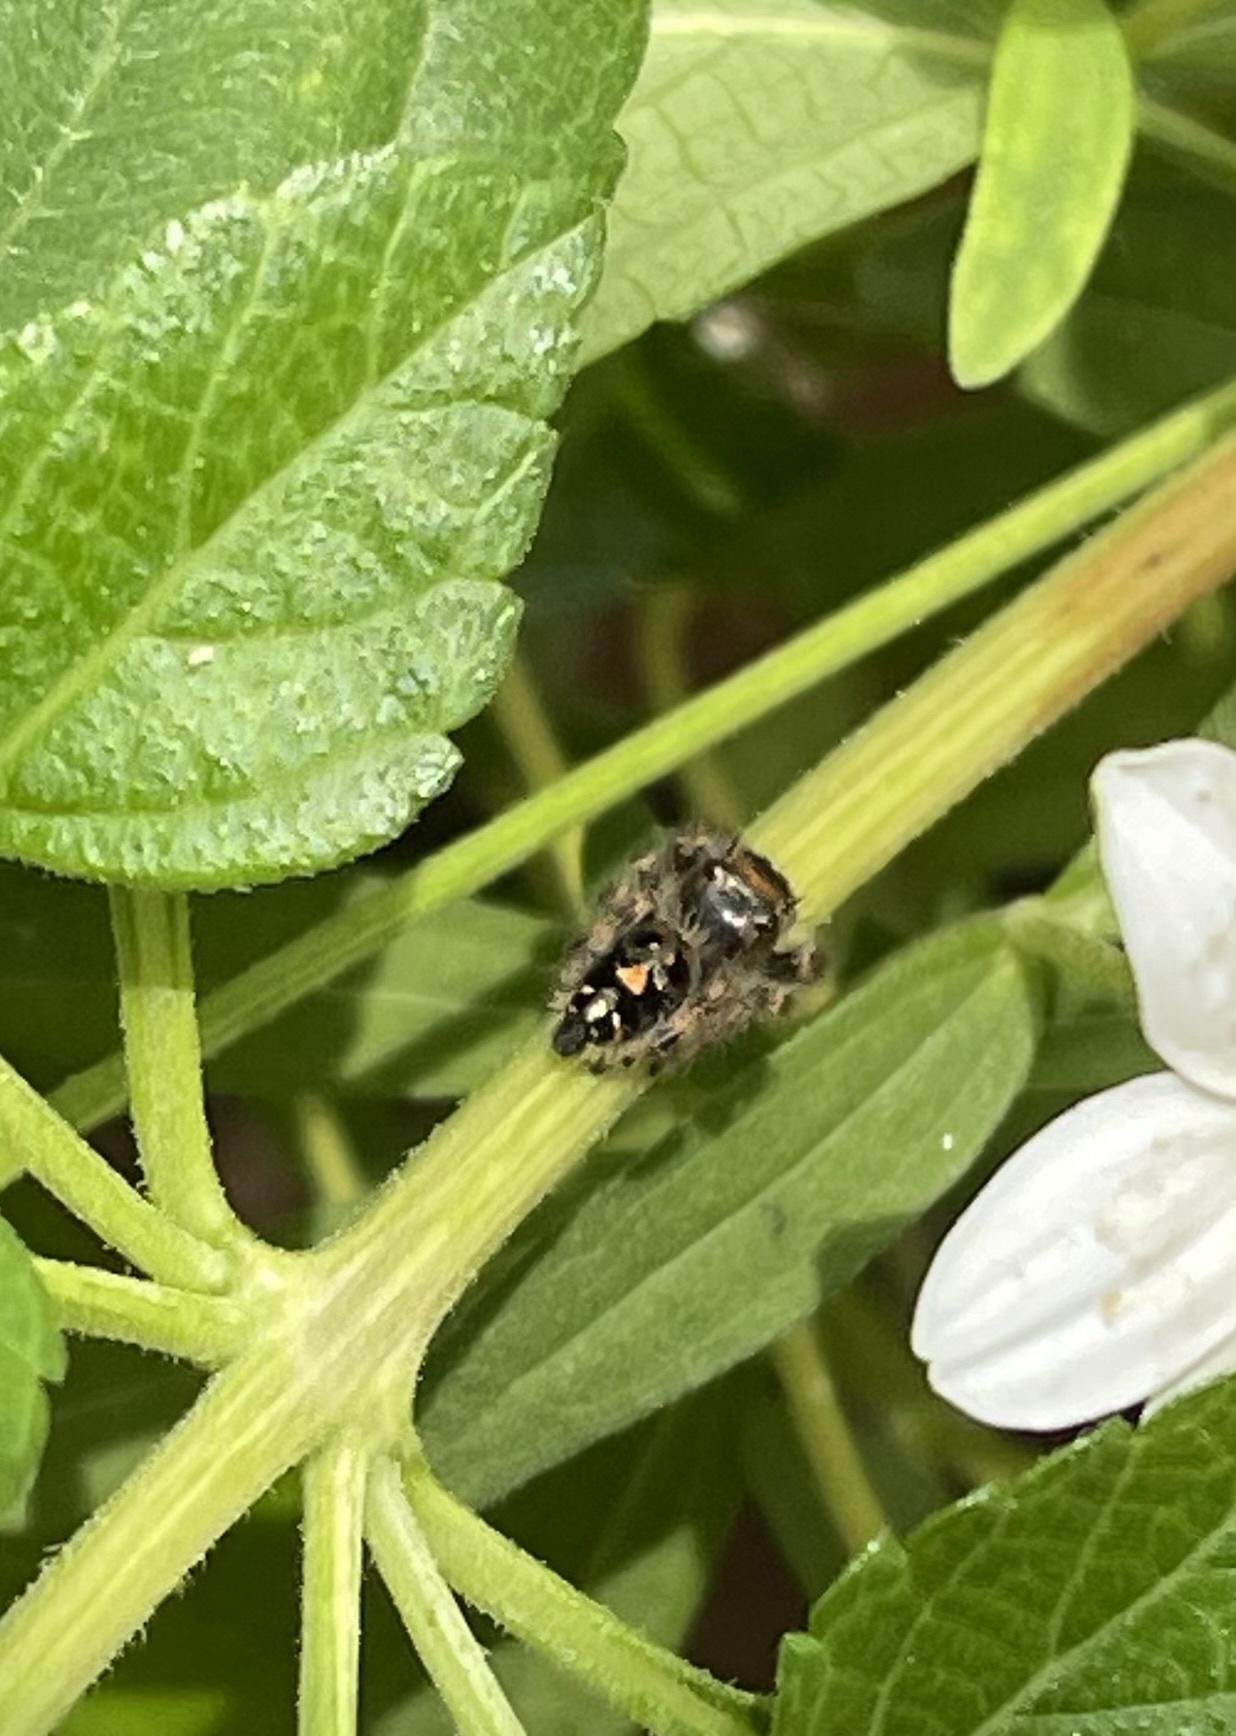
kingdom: Animalia
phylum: Arthropoda
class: Arachnida
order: Araneae
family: Salticidae
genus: Phidippus
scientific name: Phidippus audax
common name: Bold jumper
